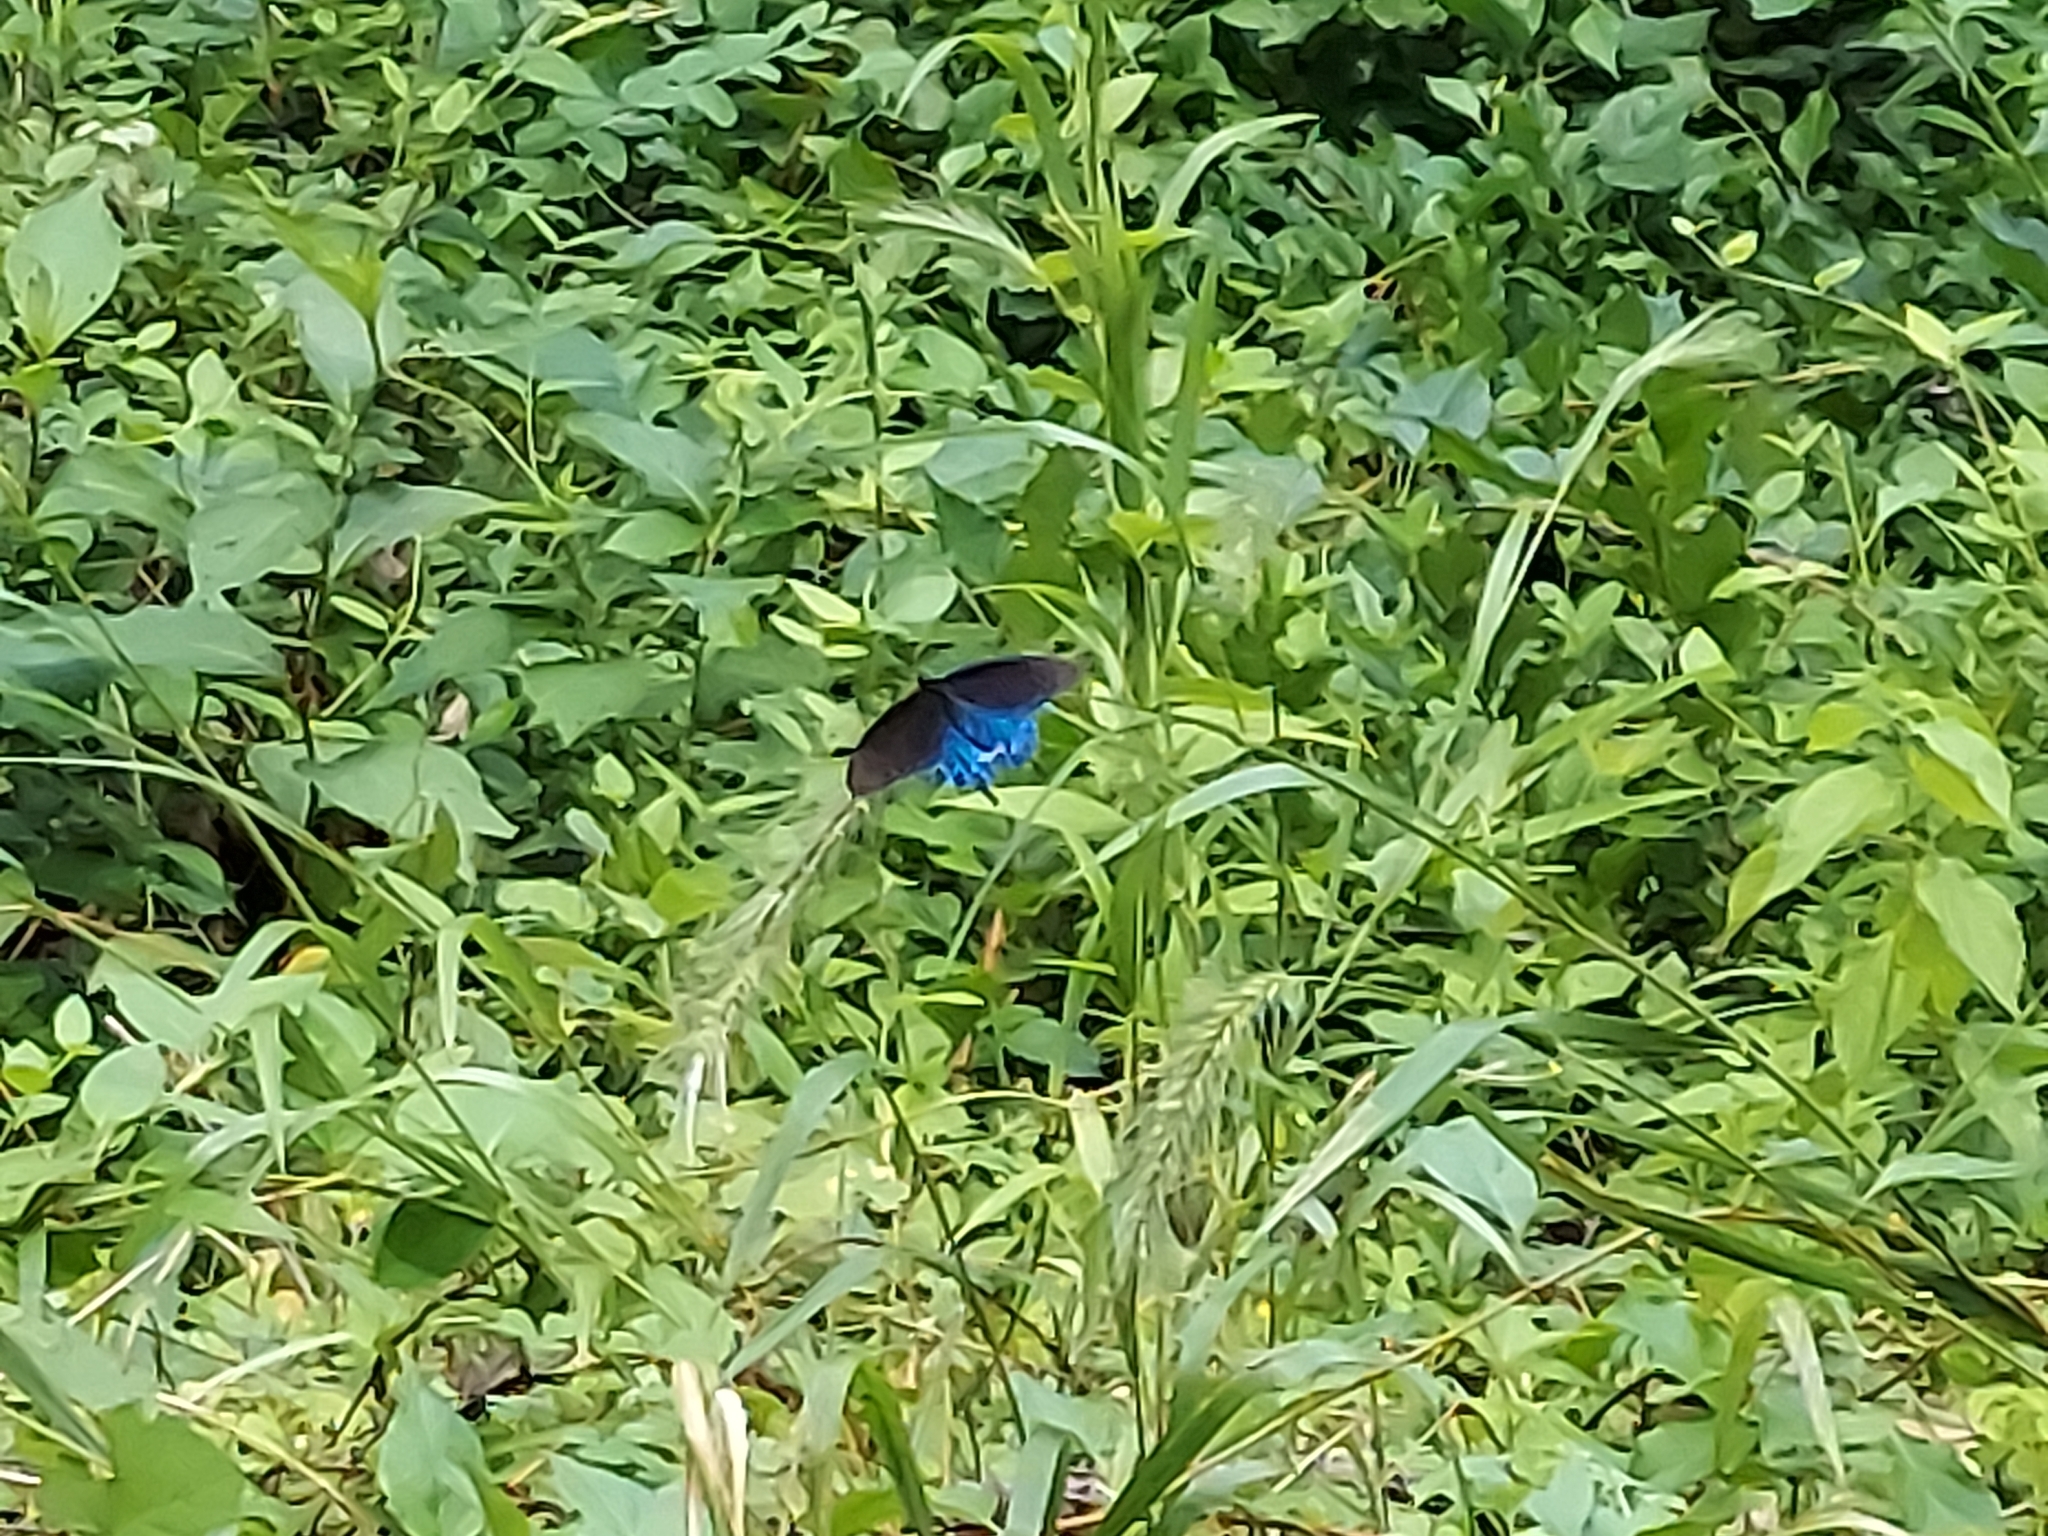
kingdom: Animalia
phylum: Arthropoda
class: Insecta
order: Lepidoptera
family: Papilionidae
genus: Battus
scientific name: Battus philenor
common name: Pipevine swallowtail
